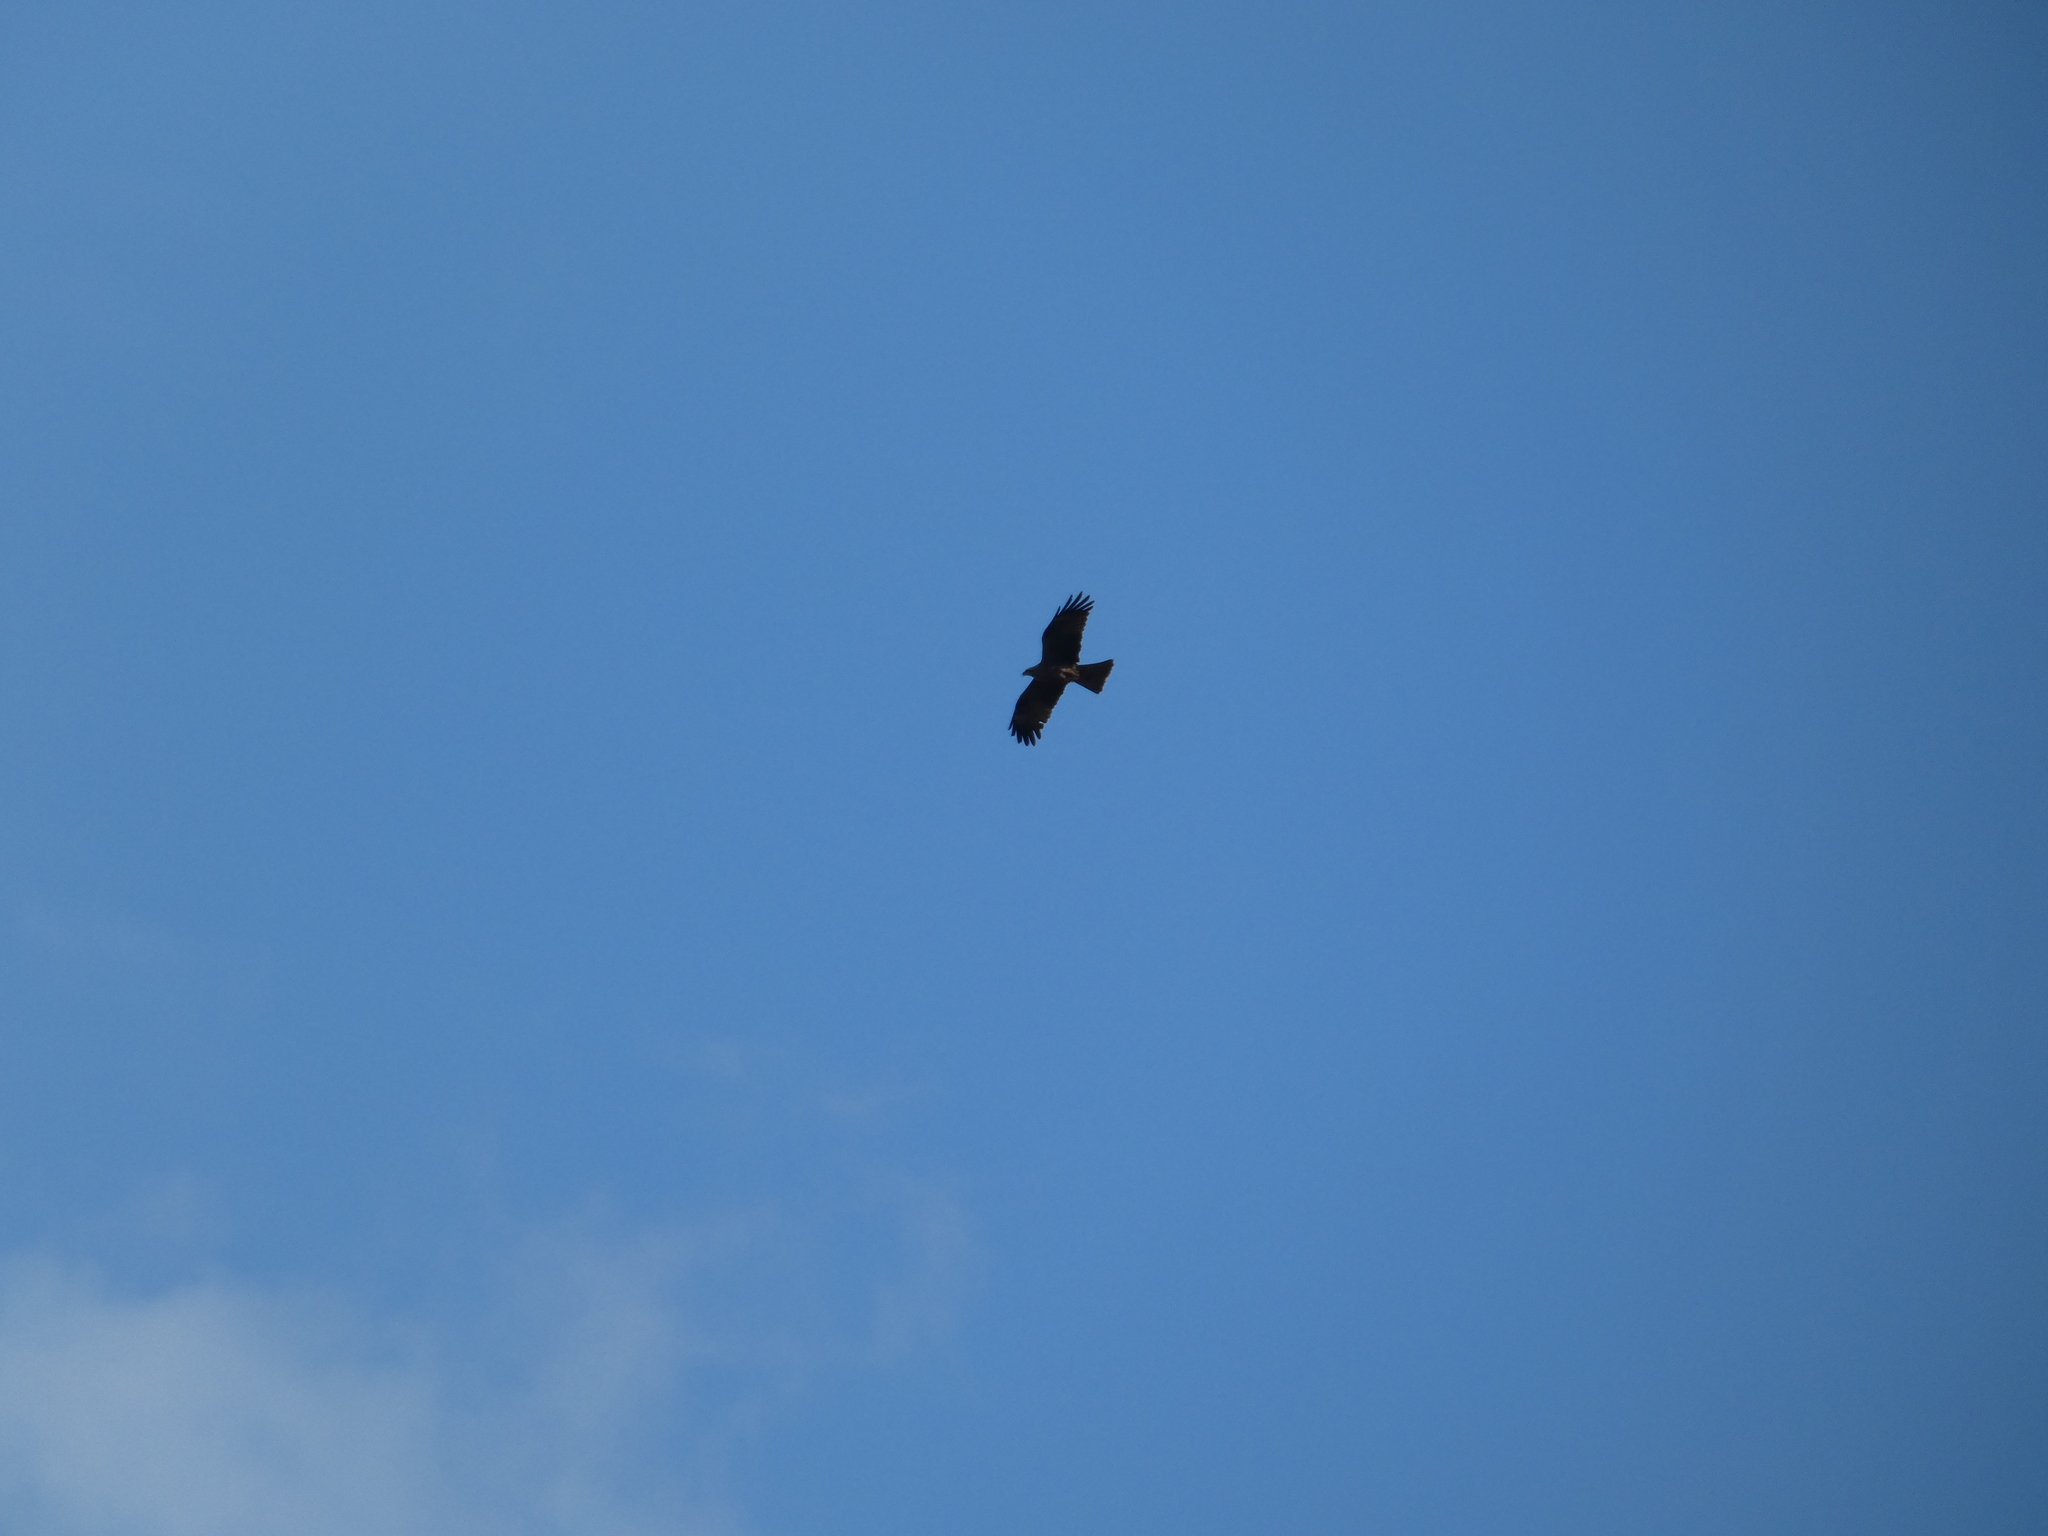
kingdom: Animalia
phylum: Chordata
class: Aves
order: Accipitriformes
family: Accipitridae
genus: Milvus
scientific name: Milvus migrans
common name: Black kite
